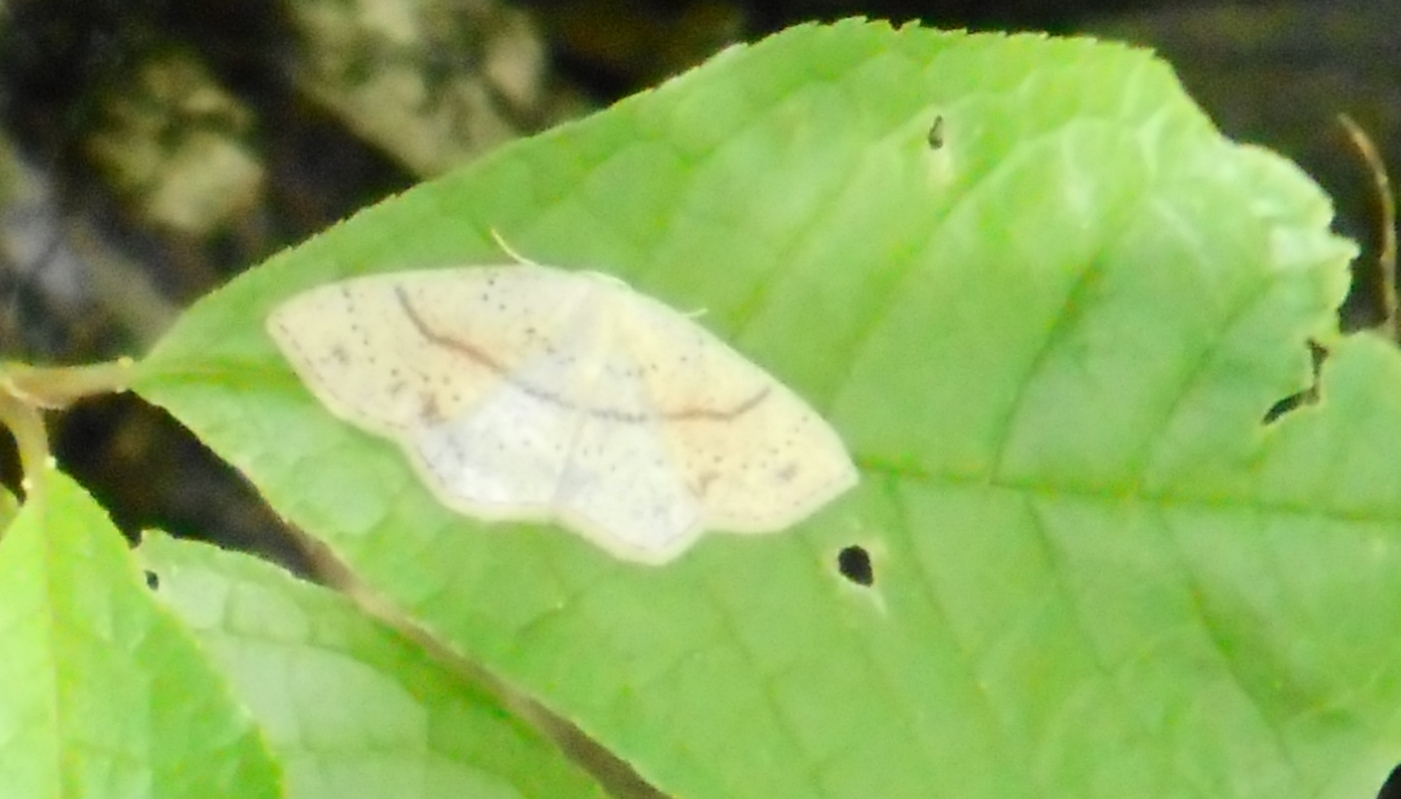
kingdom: Animalia
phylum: Arthropoda
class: Insecta
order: Lepidoptera
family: Geometridae
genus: Cyclophora
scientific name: Cyclophora punctaria
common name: Maiden's blush
